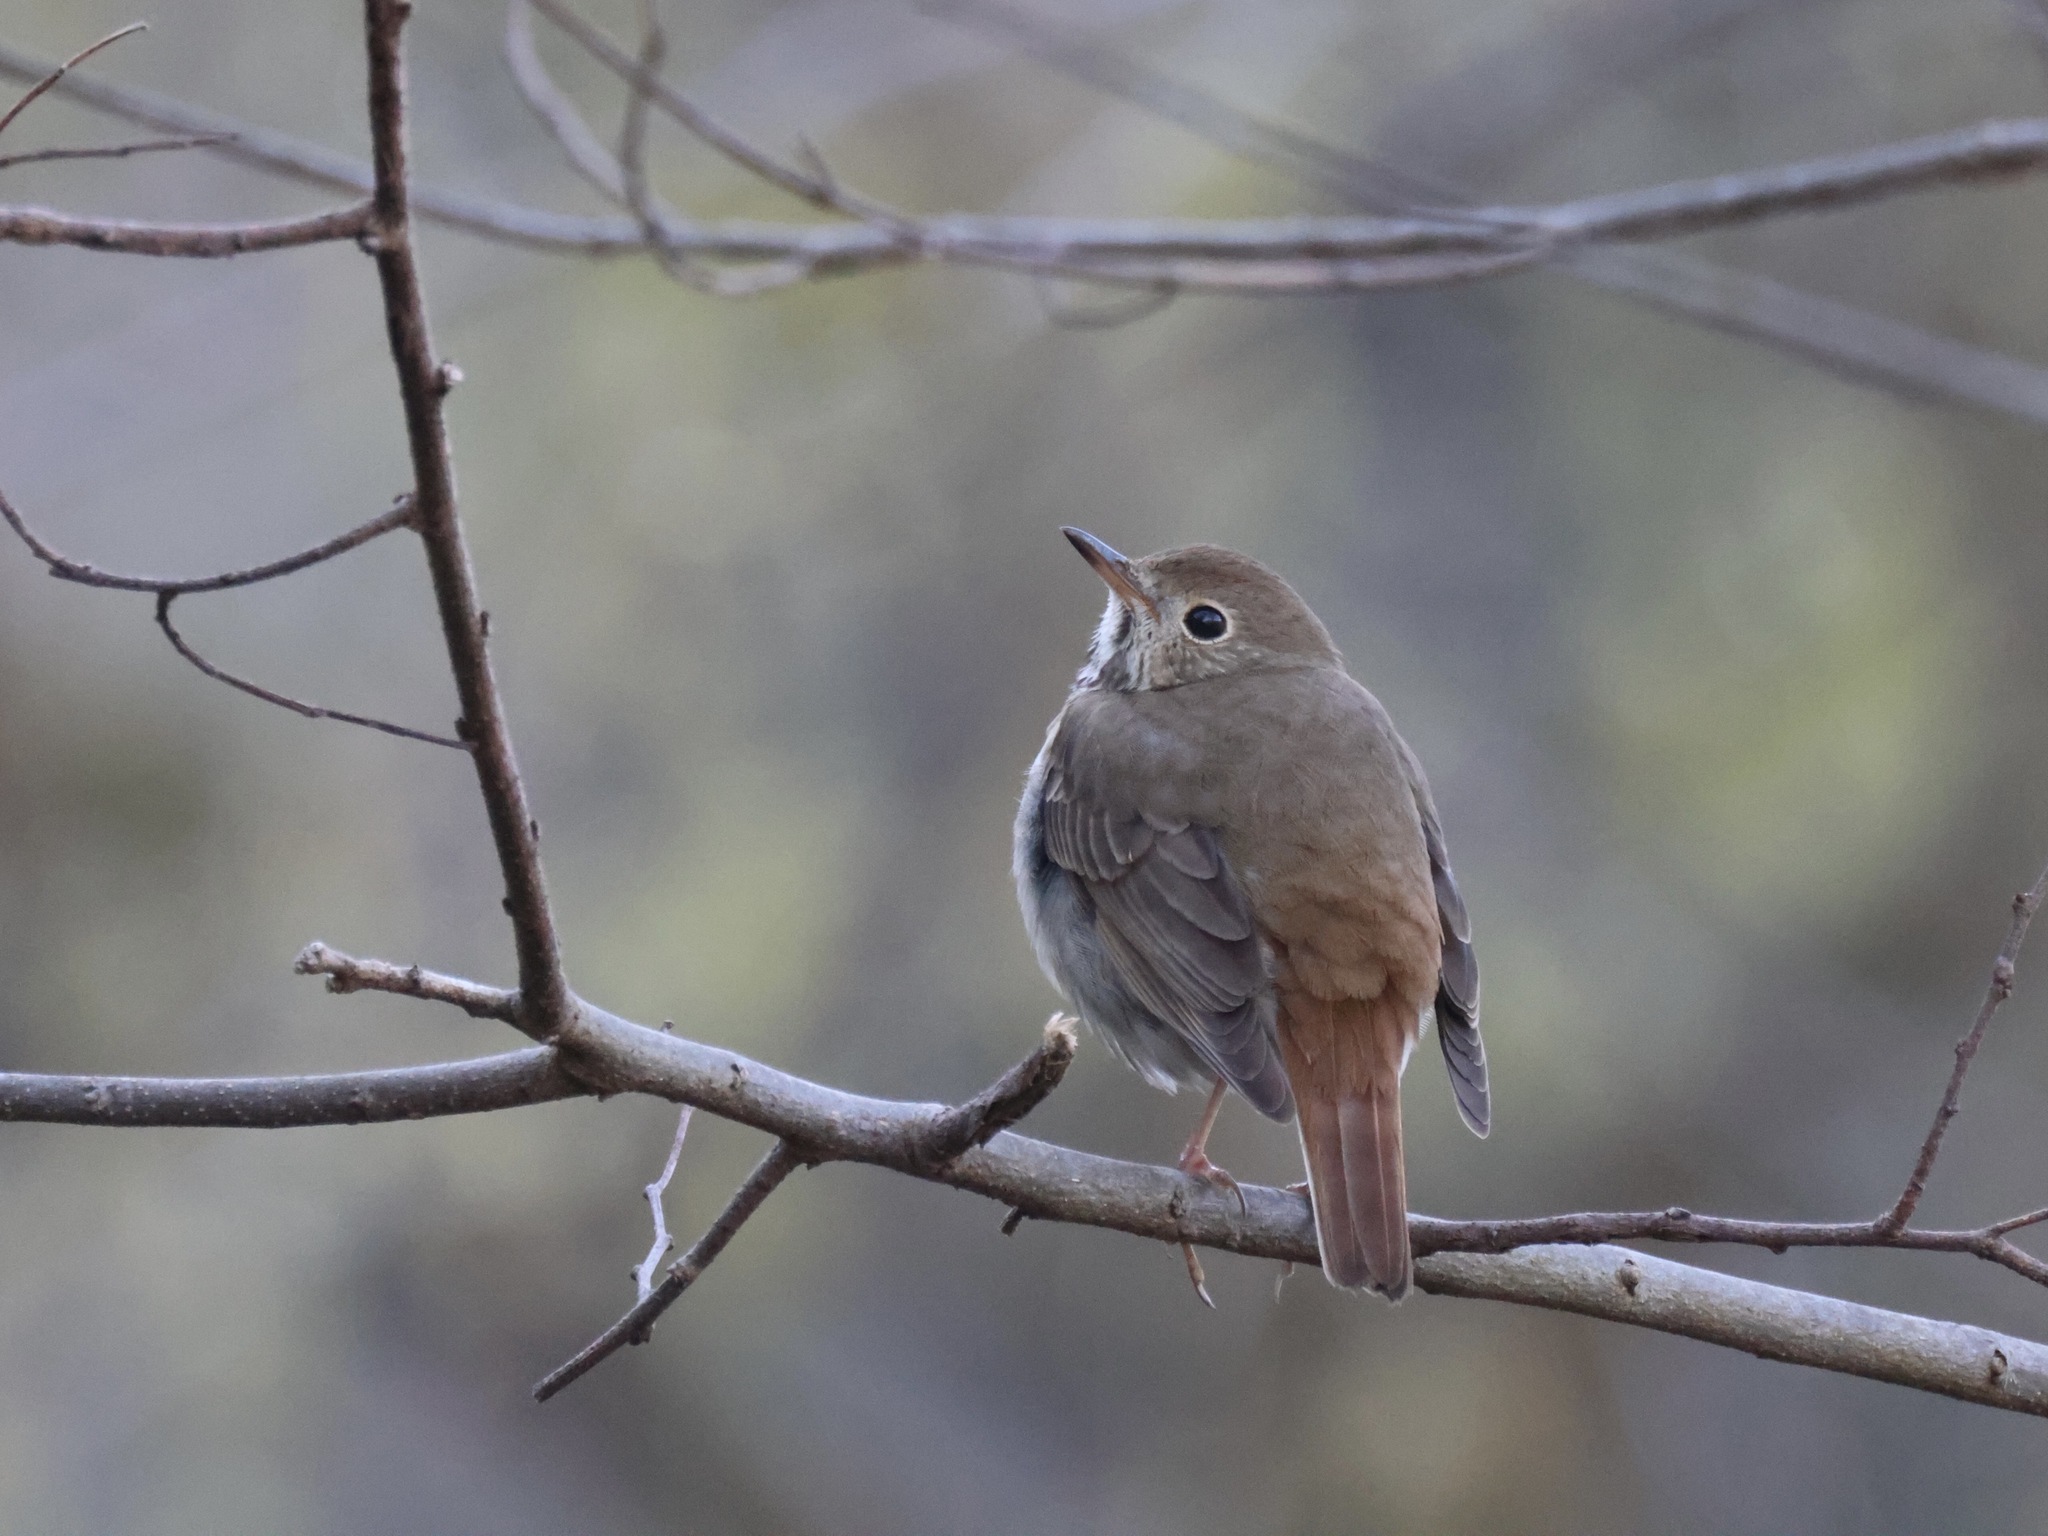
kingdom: Animalia
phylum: Chordata
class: Aves
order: Passeriformes
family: Turdidae
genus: Catharus
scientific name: Catharus guttatus
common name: Hermit thrush
